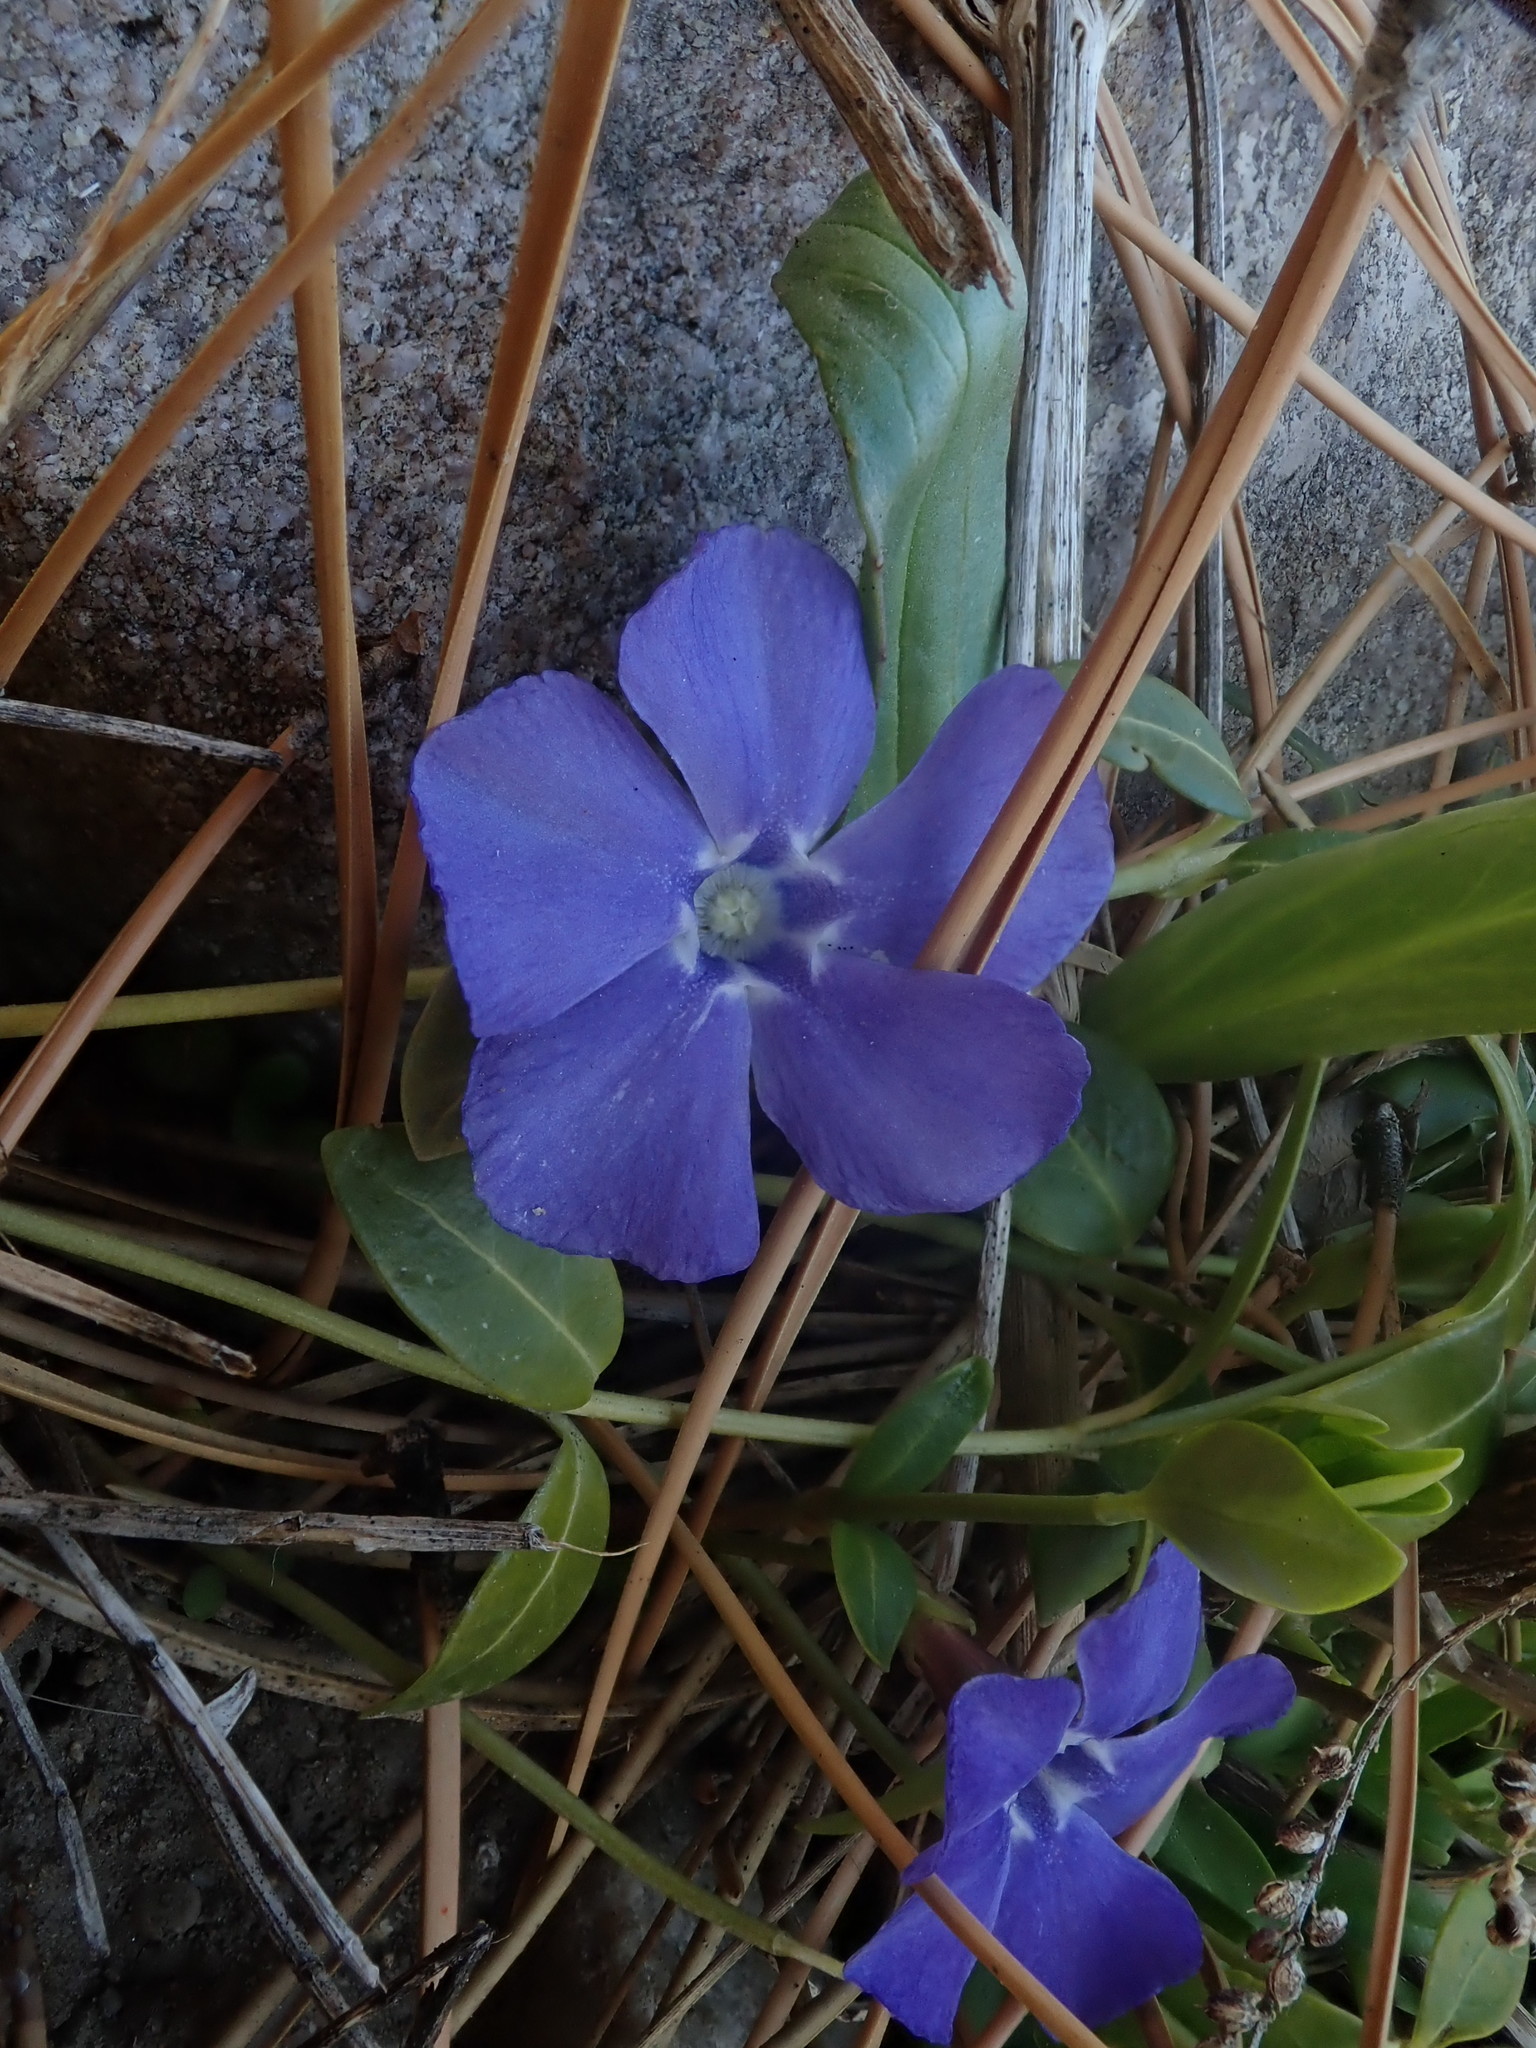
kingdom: Plantae
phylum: Tracheophyta
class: Magnoliopsida
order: Gentianales
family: Apocynaceae
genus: Vinca
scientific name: Vinca minor
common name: Lesser periwinkle
